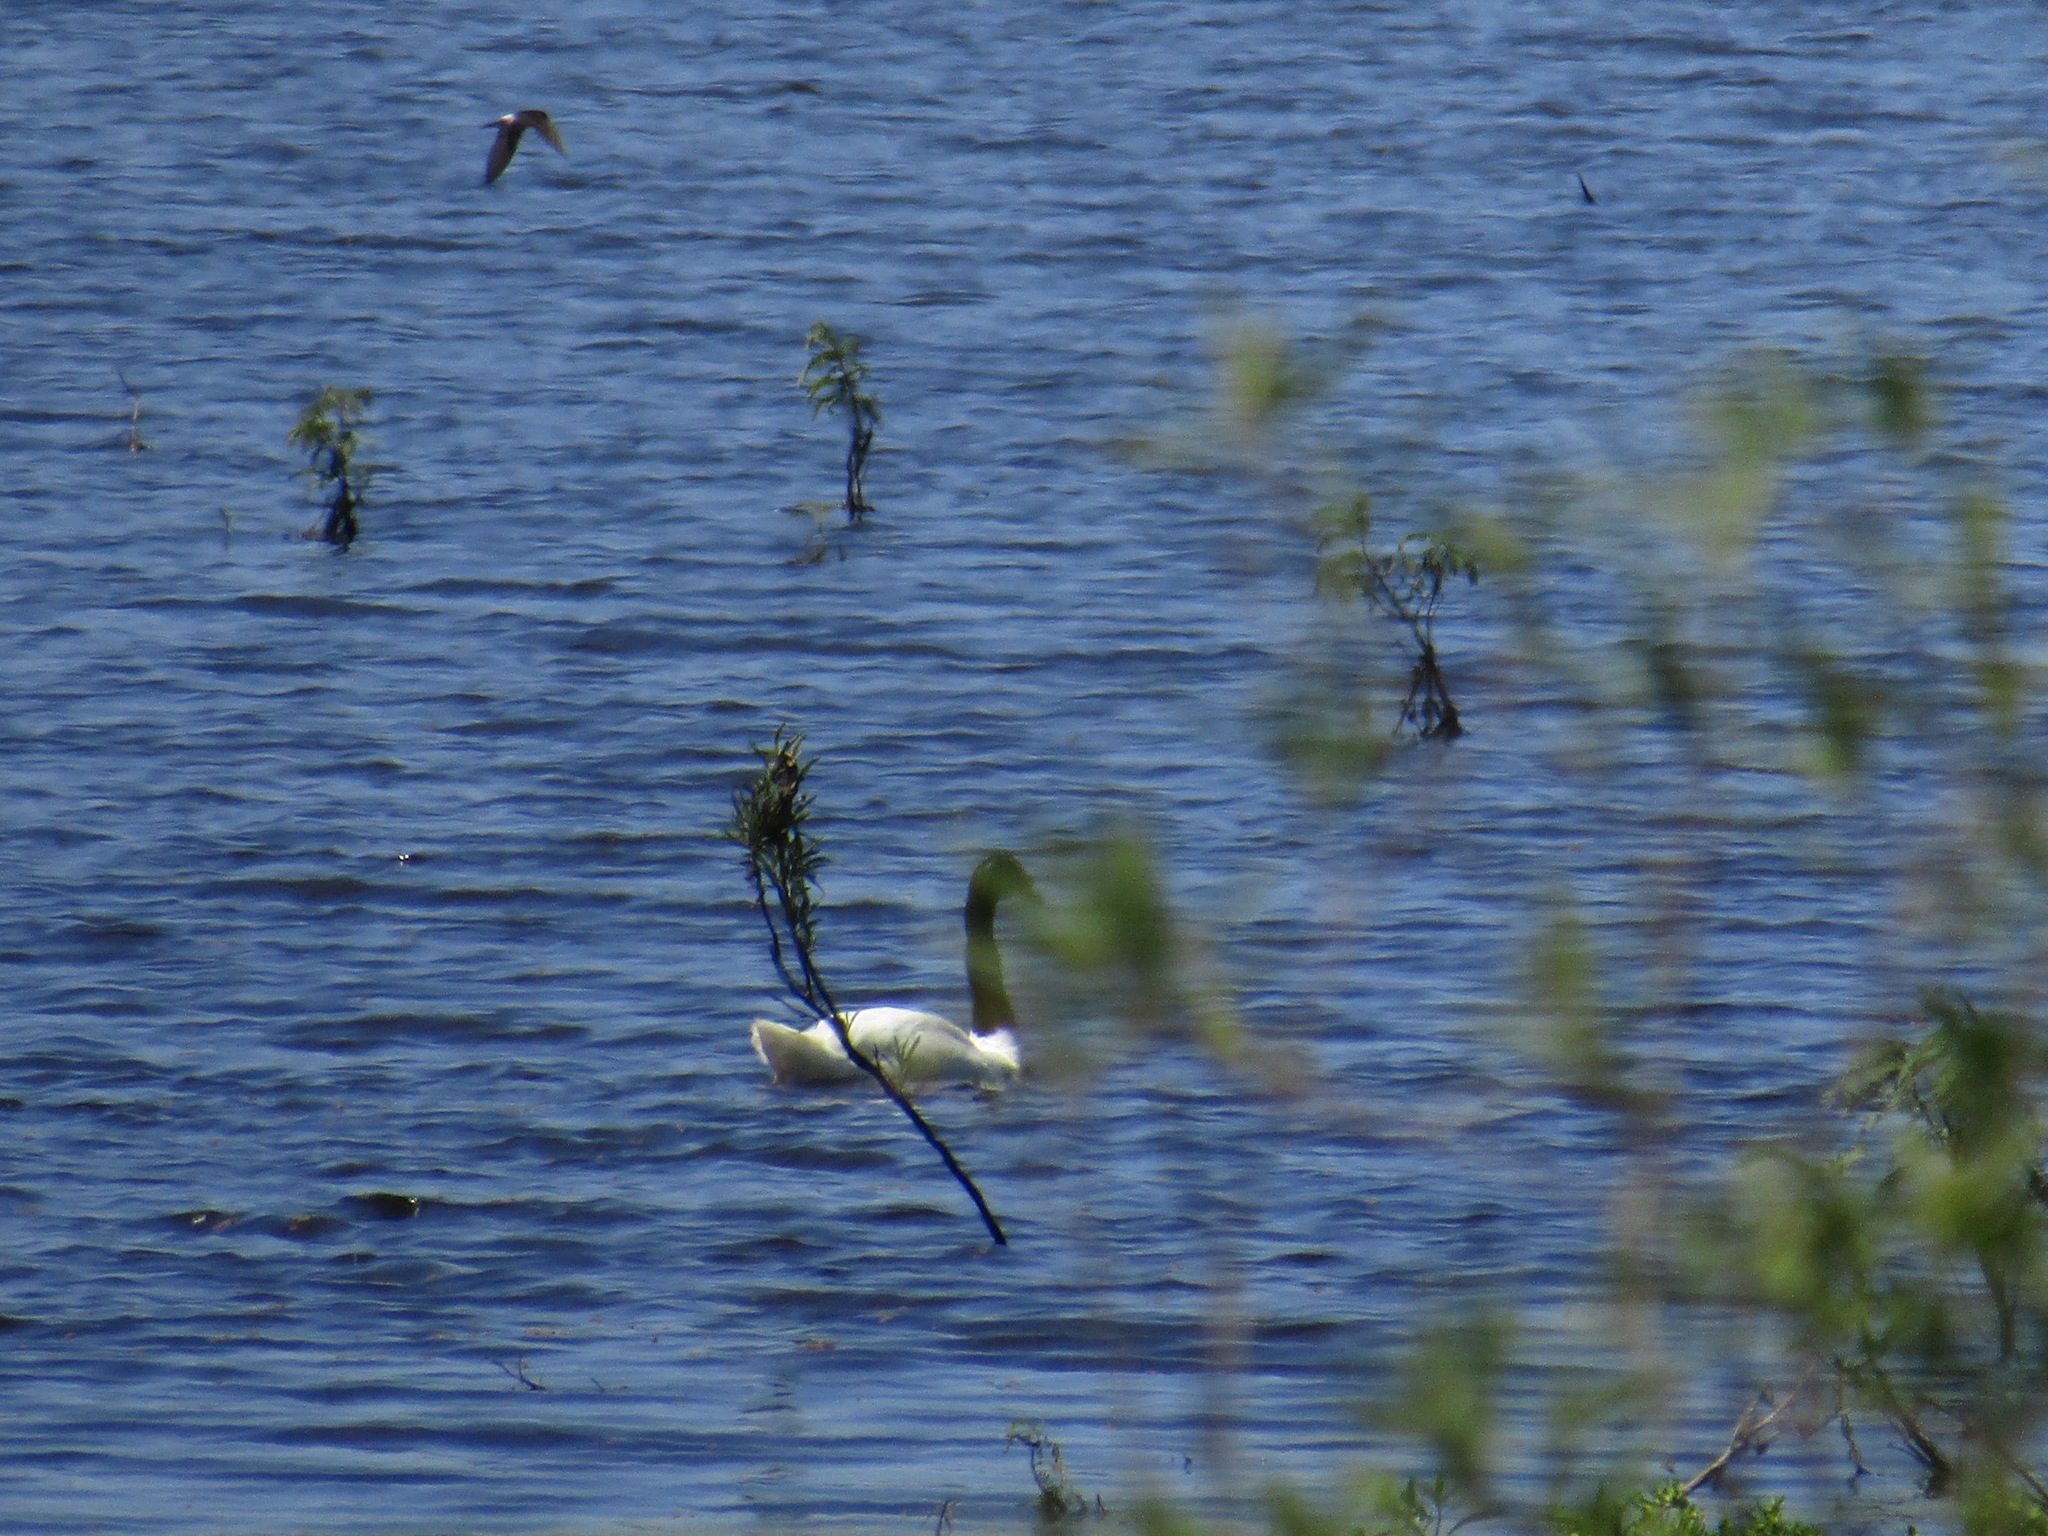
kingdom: Animalia
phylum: Chordata
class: Aves
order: Anseriformes
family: Anatidae
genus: Cygnus
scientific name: Cygnus melancoryphus
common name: Black-necked swan
